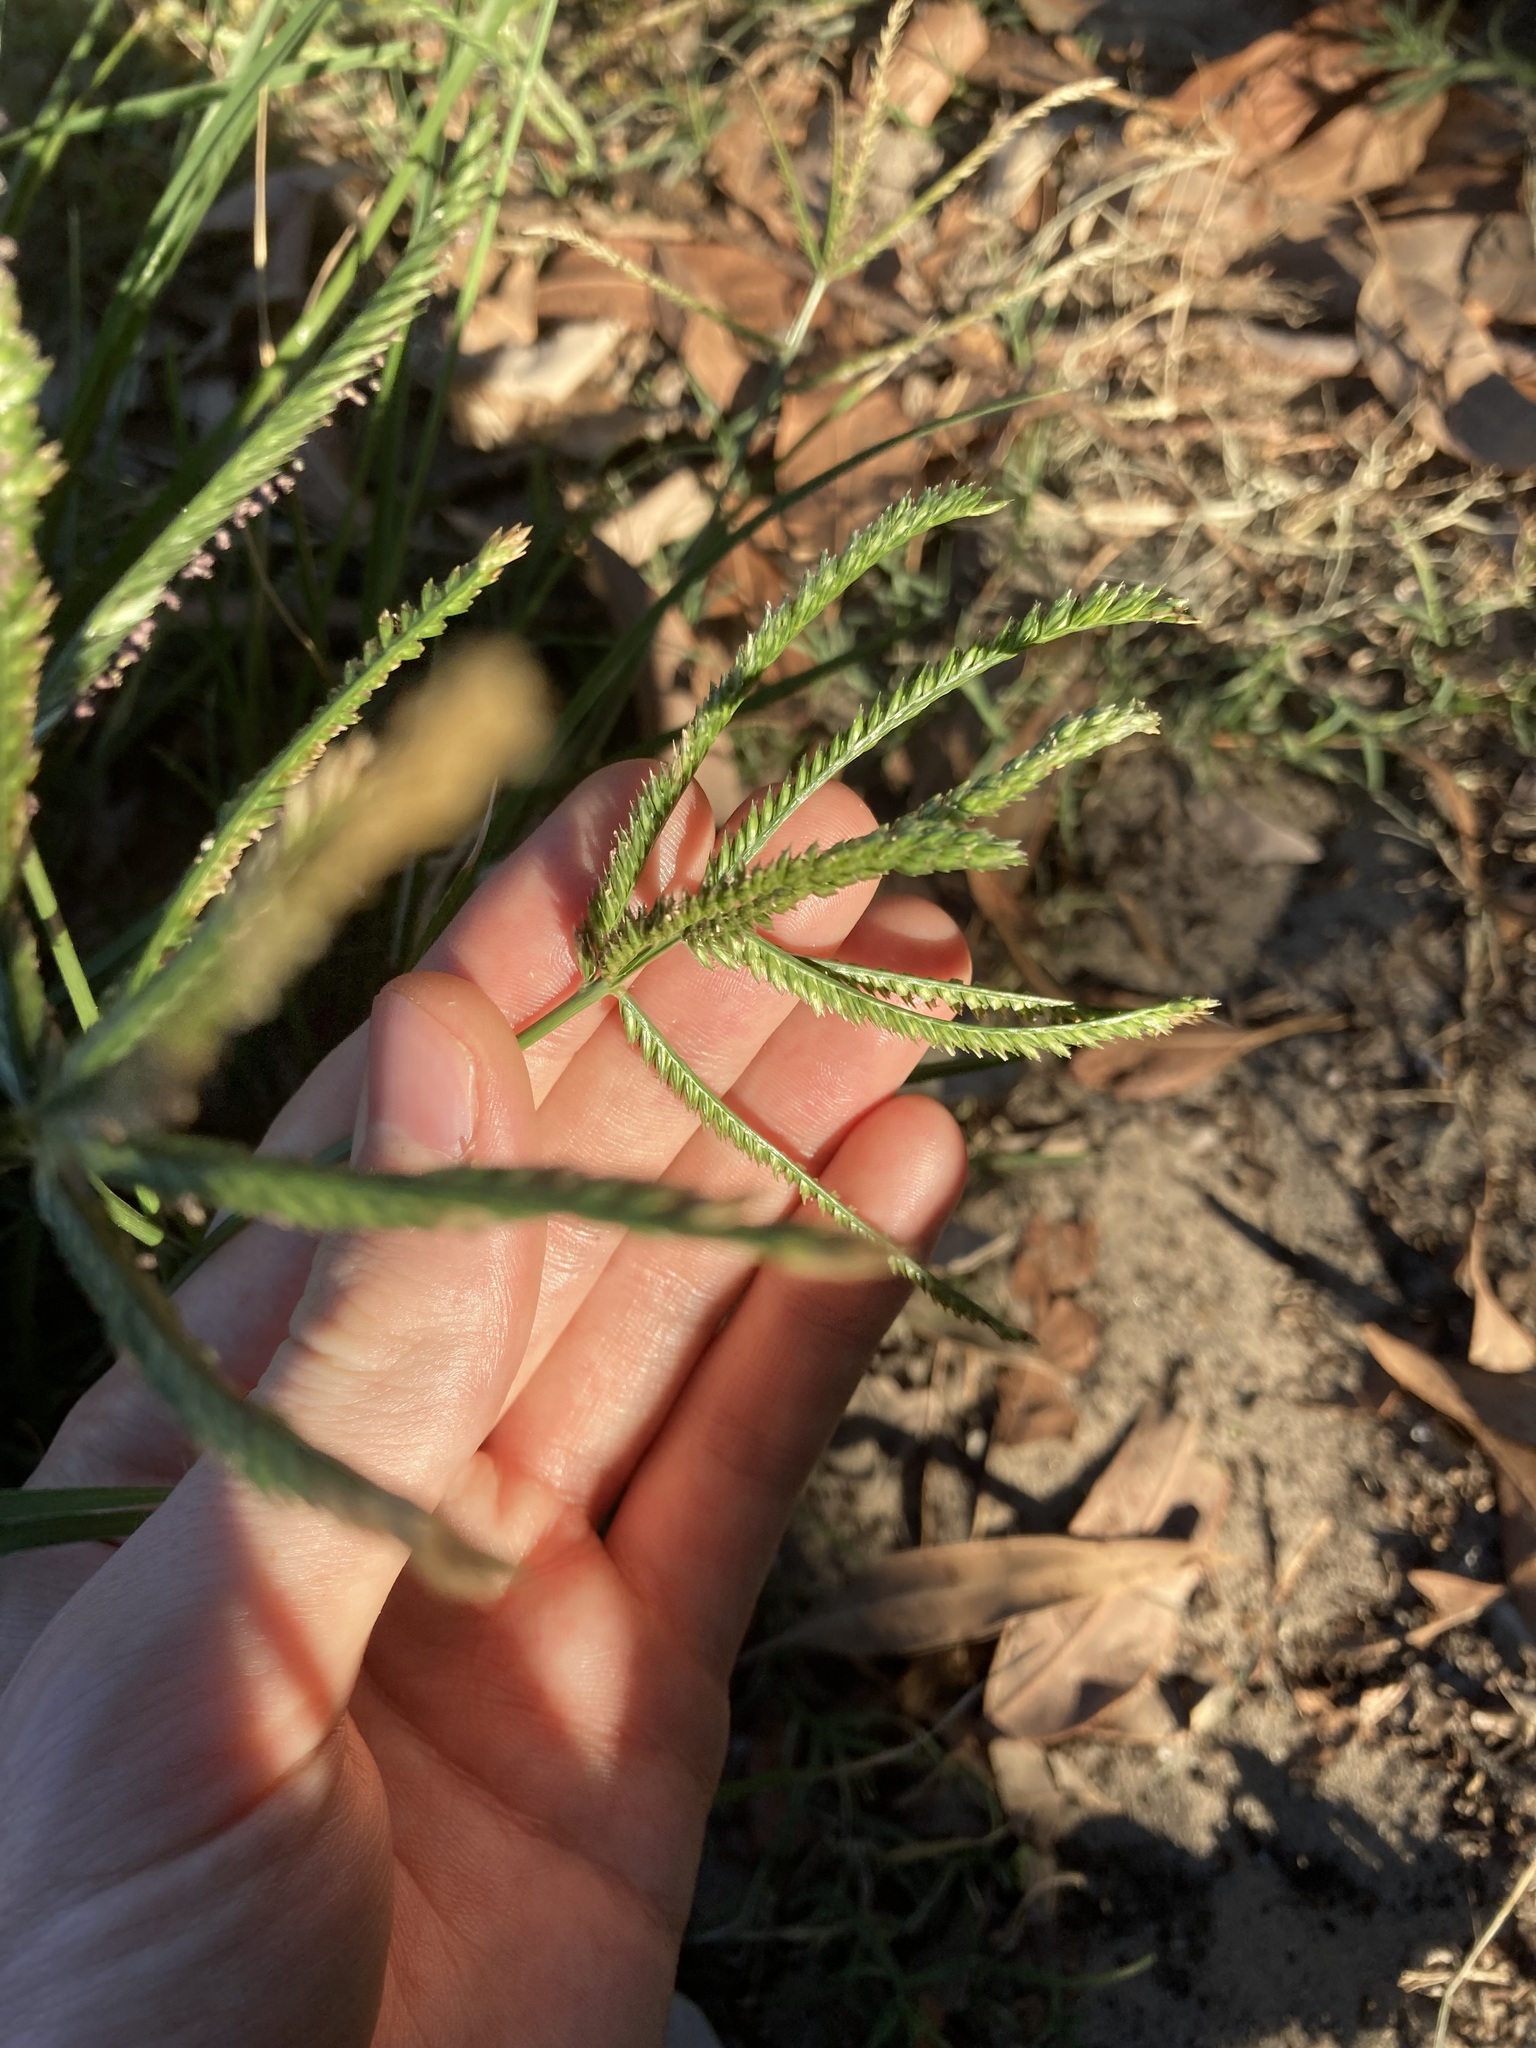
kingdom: Plantae
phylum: Tracheophyta
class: Liliopsida
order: Poales
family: Poaceae
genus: Eleusine
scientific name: Eleusine indica
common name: Yard-grass
